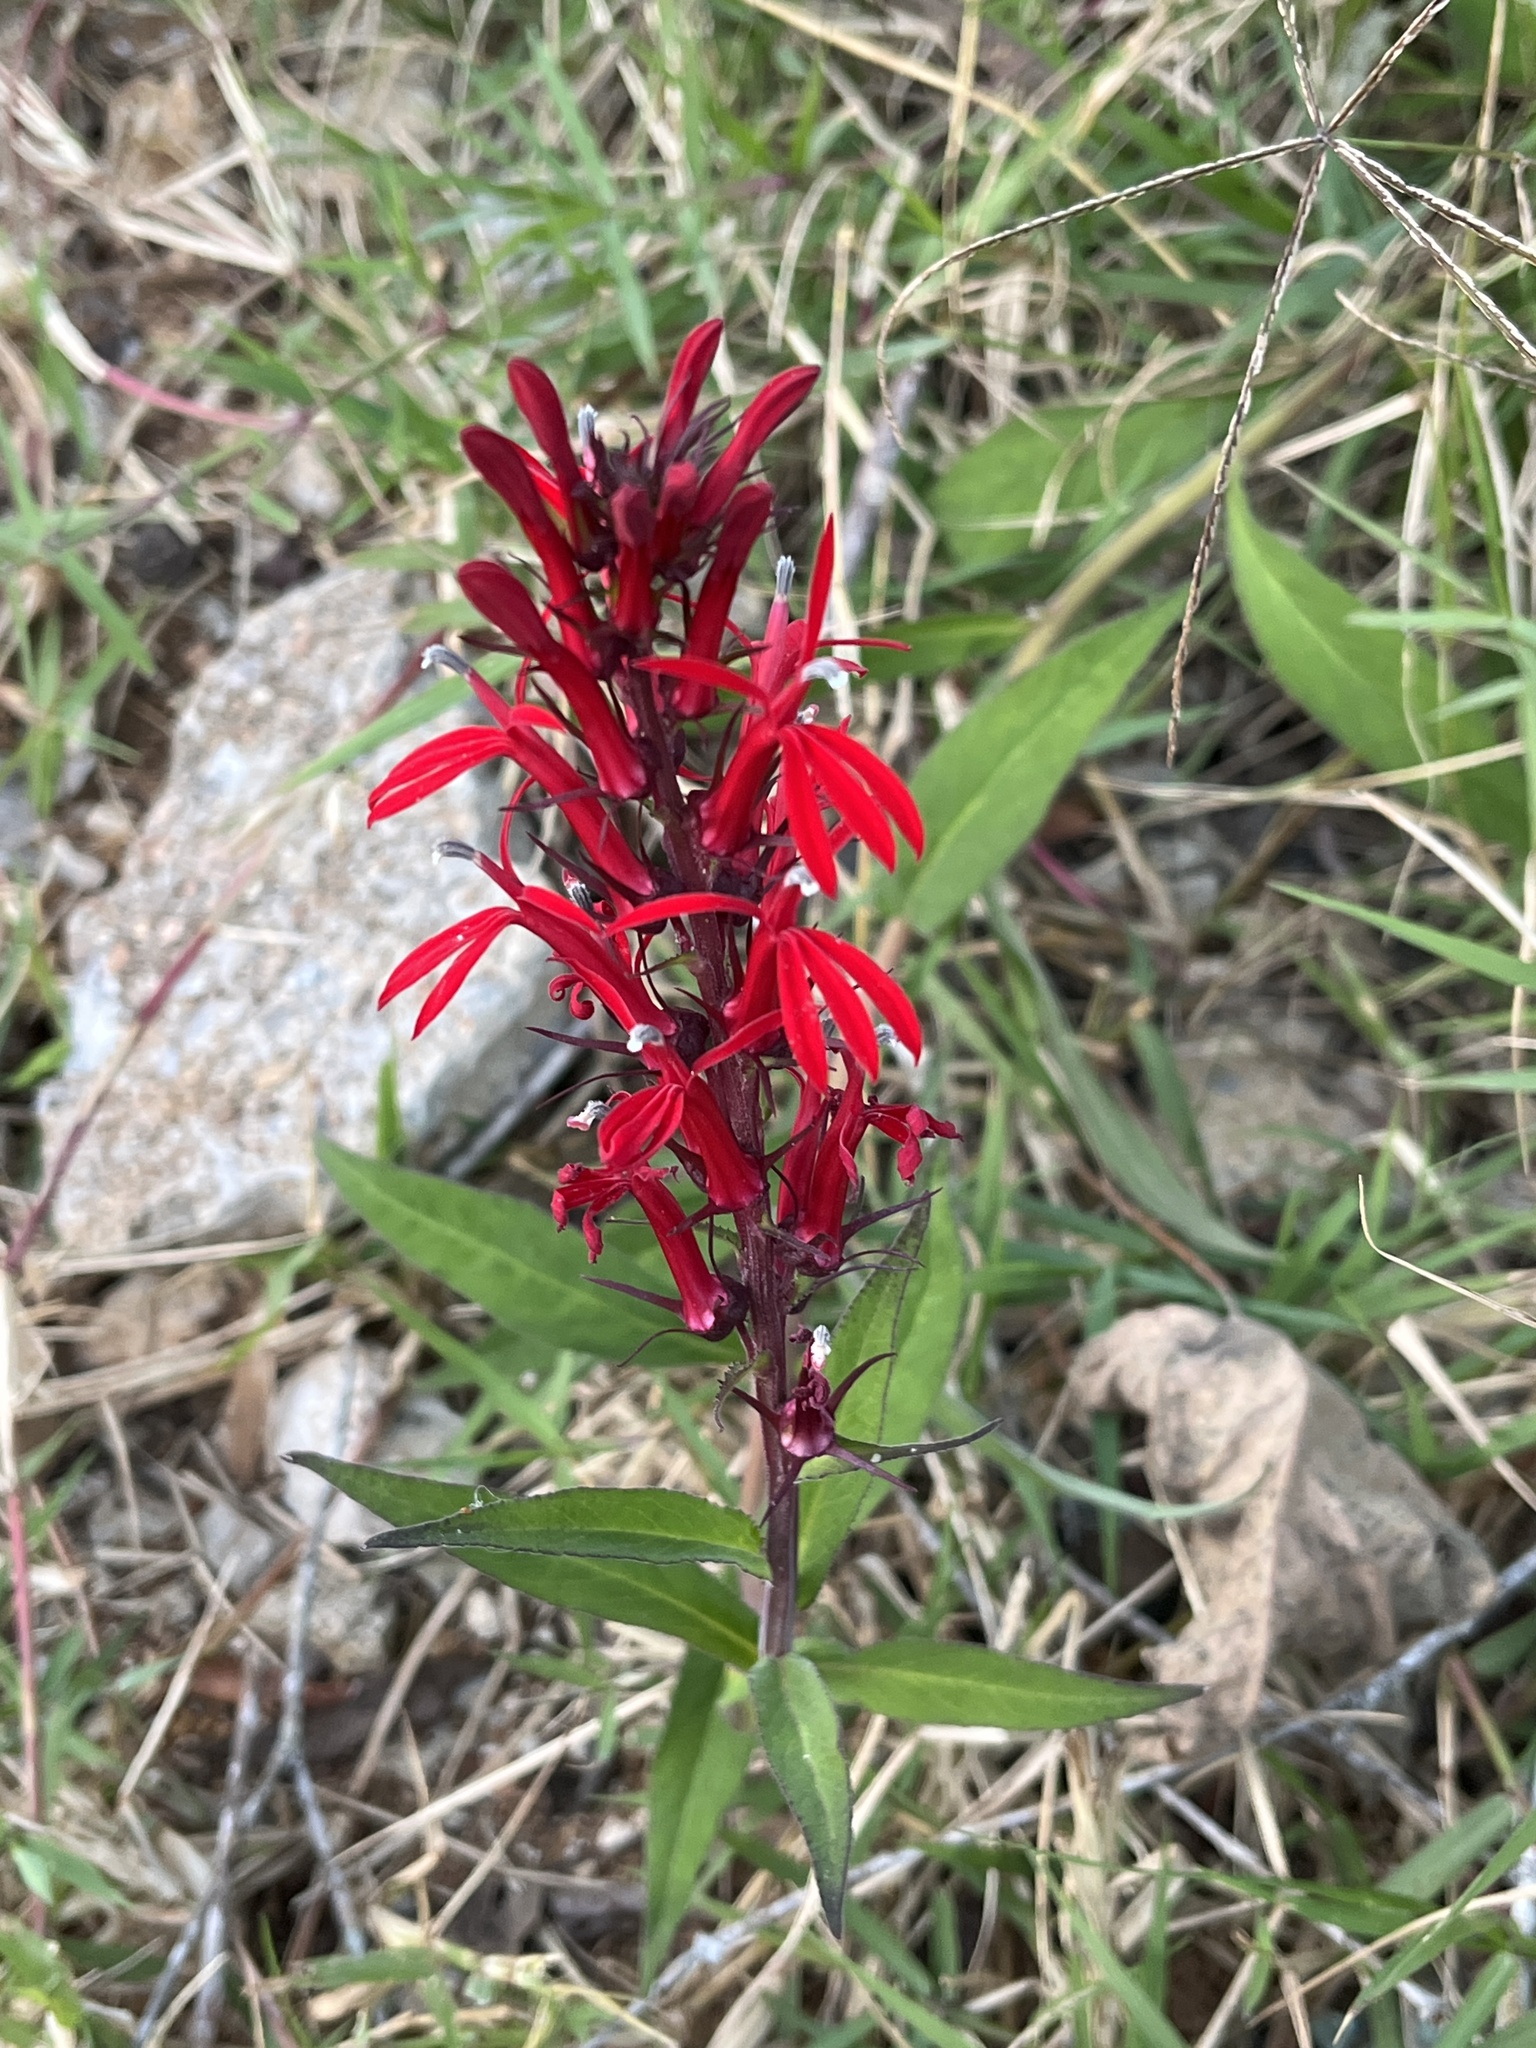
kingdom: Plantae
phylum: Tracheophyta
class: Magnoliopsida
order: Asterales
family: Campanulaceae
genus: Lobelia
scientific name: Lobelia cardinalis
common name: Cardinal flower
